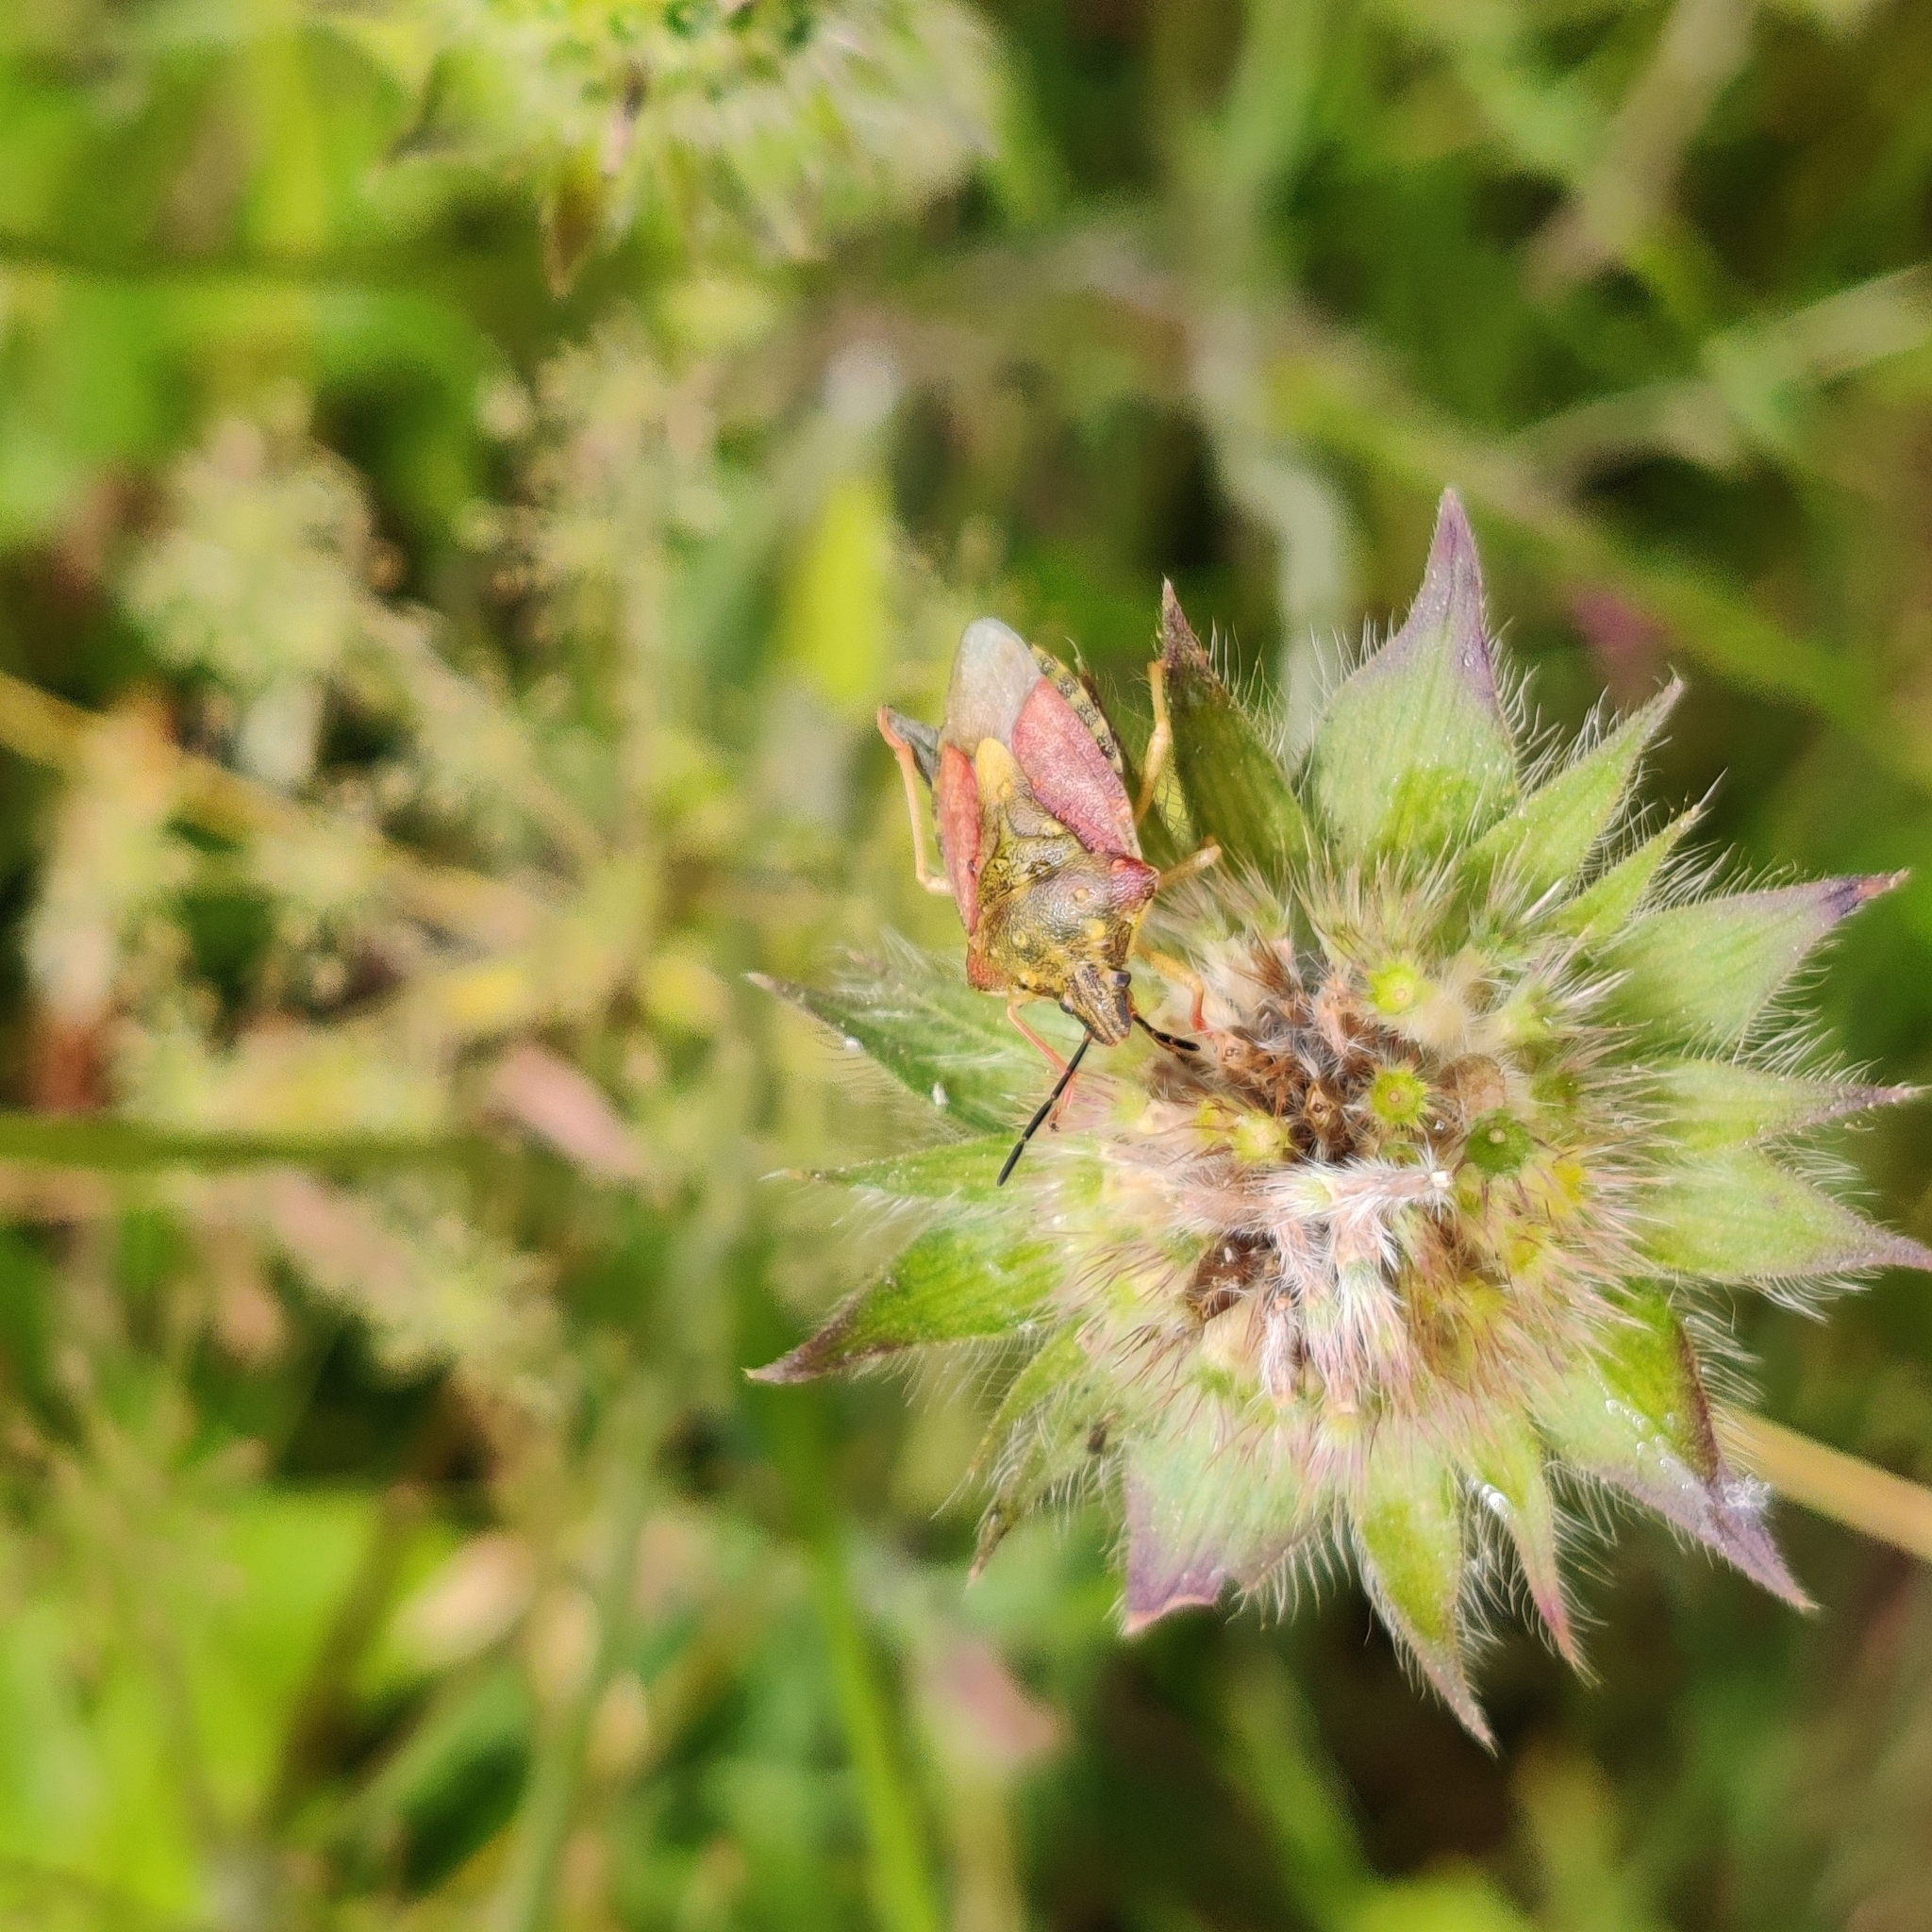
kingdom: Animalia
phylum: Arthropoda
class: Insecta
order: Hemiptera
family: Pentatomidae
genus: Carpocoris
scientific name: Carpocoris purpureipennis
